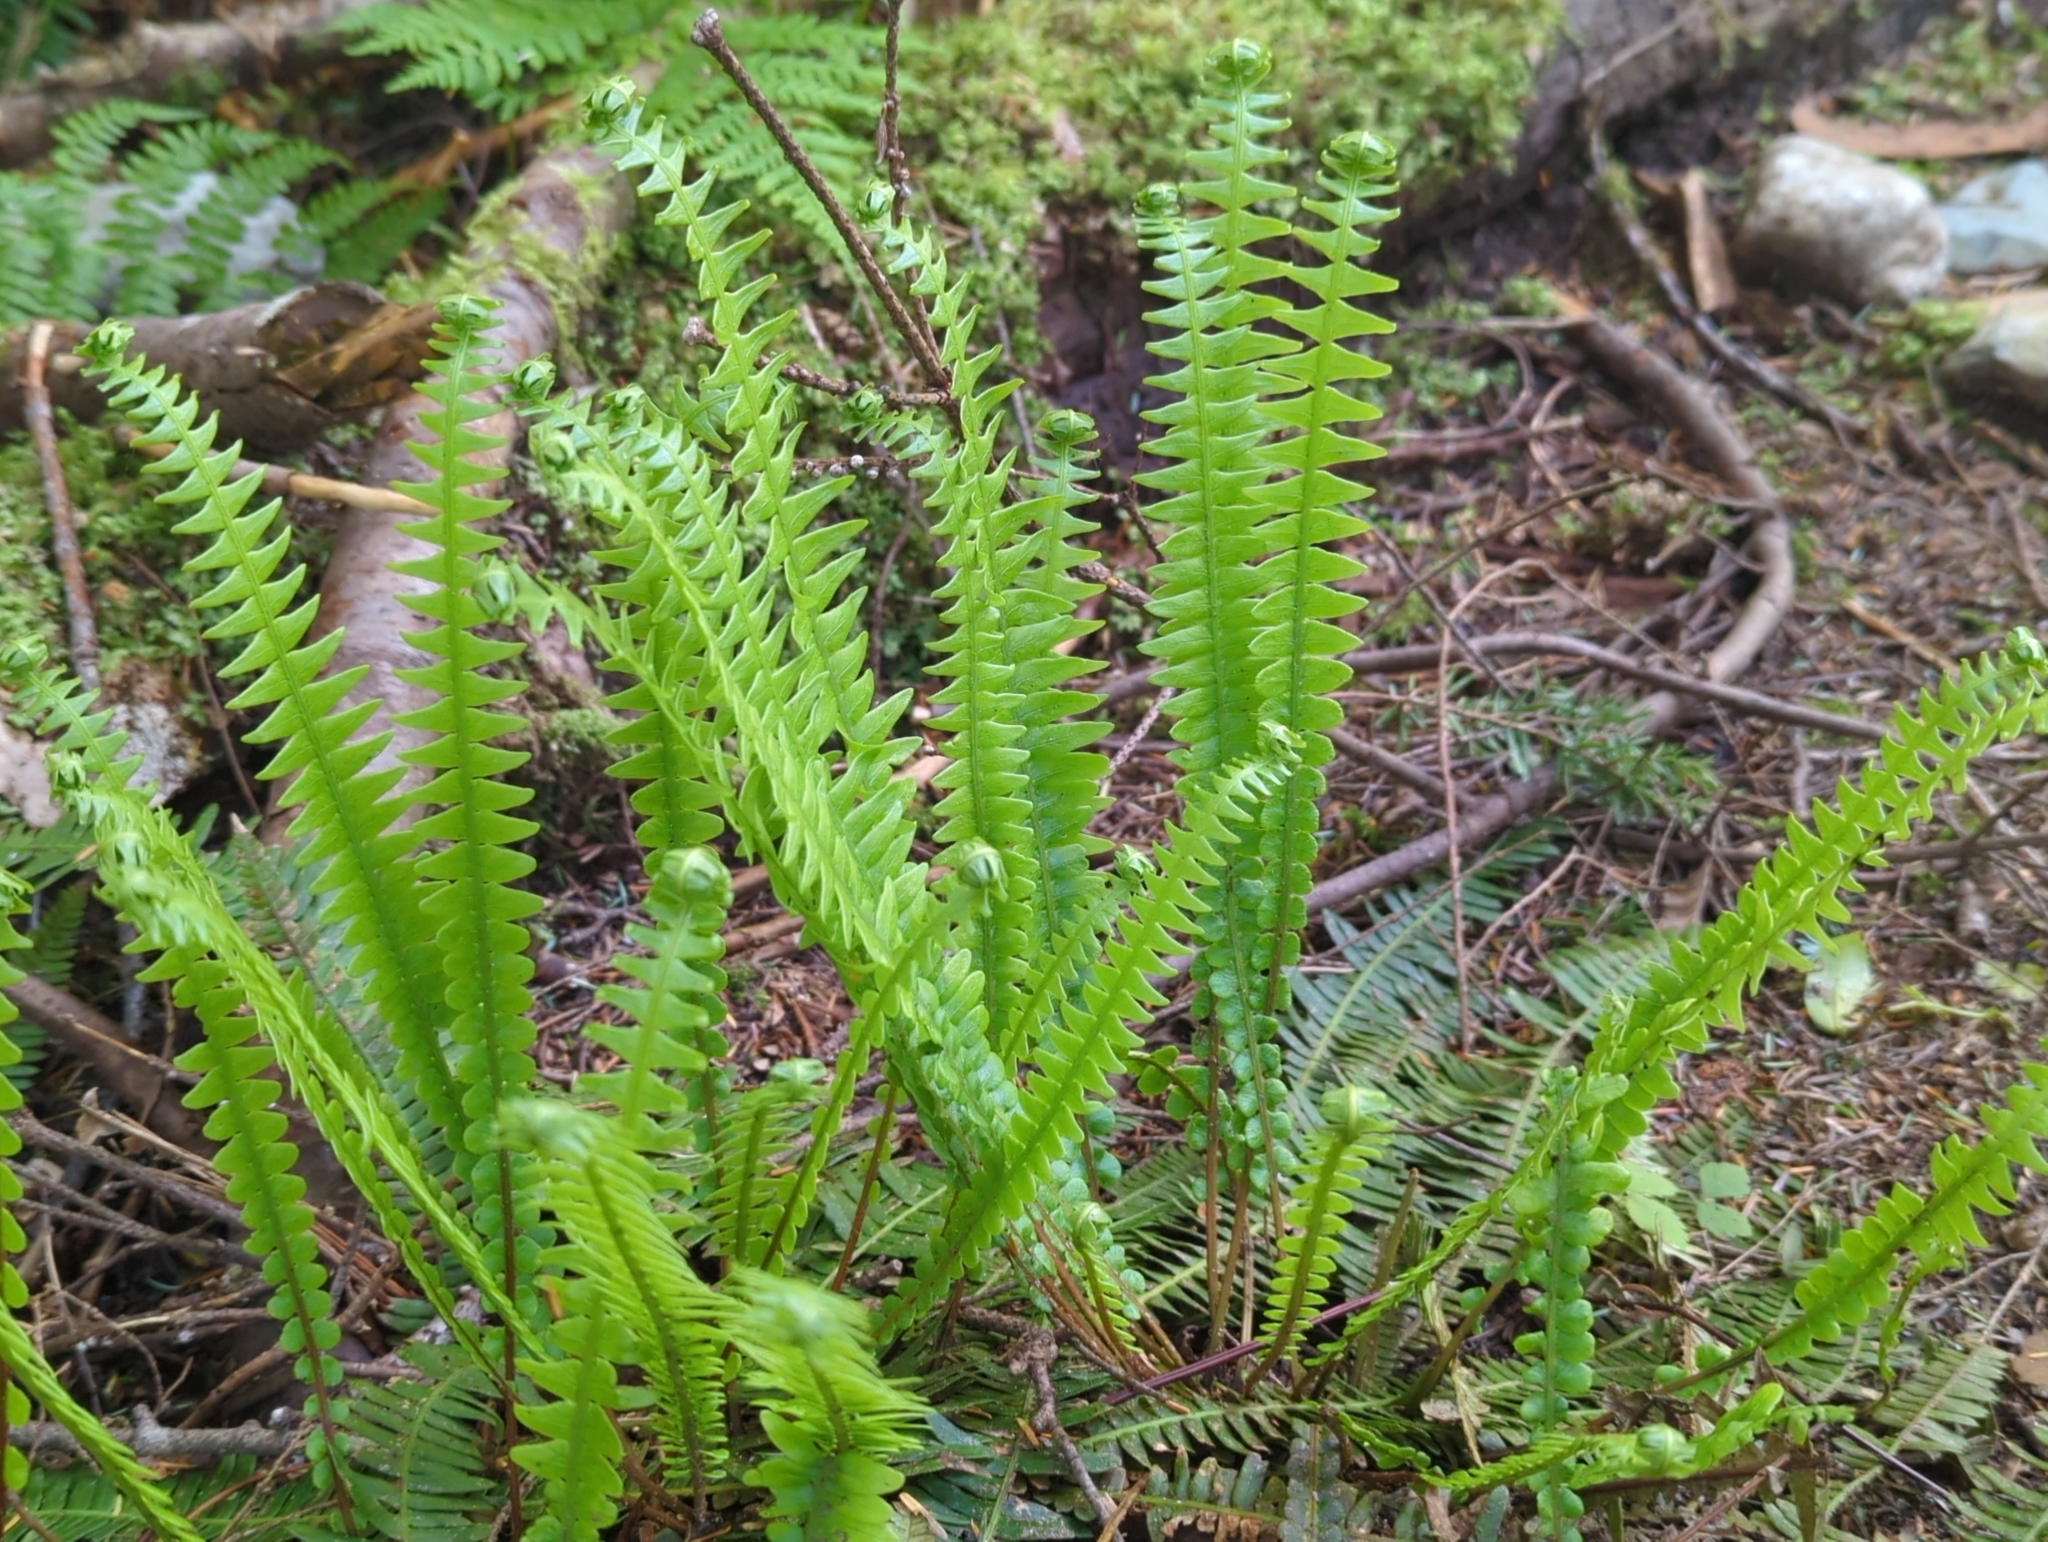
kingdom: Plantae
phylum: Tracheophyta
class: Polypodiopsida
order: Polypodiales
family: Blechnaceae
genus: Struthiopteris
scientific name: Struthiopteris spicant
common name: Deer fern
